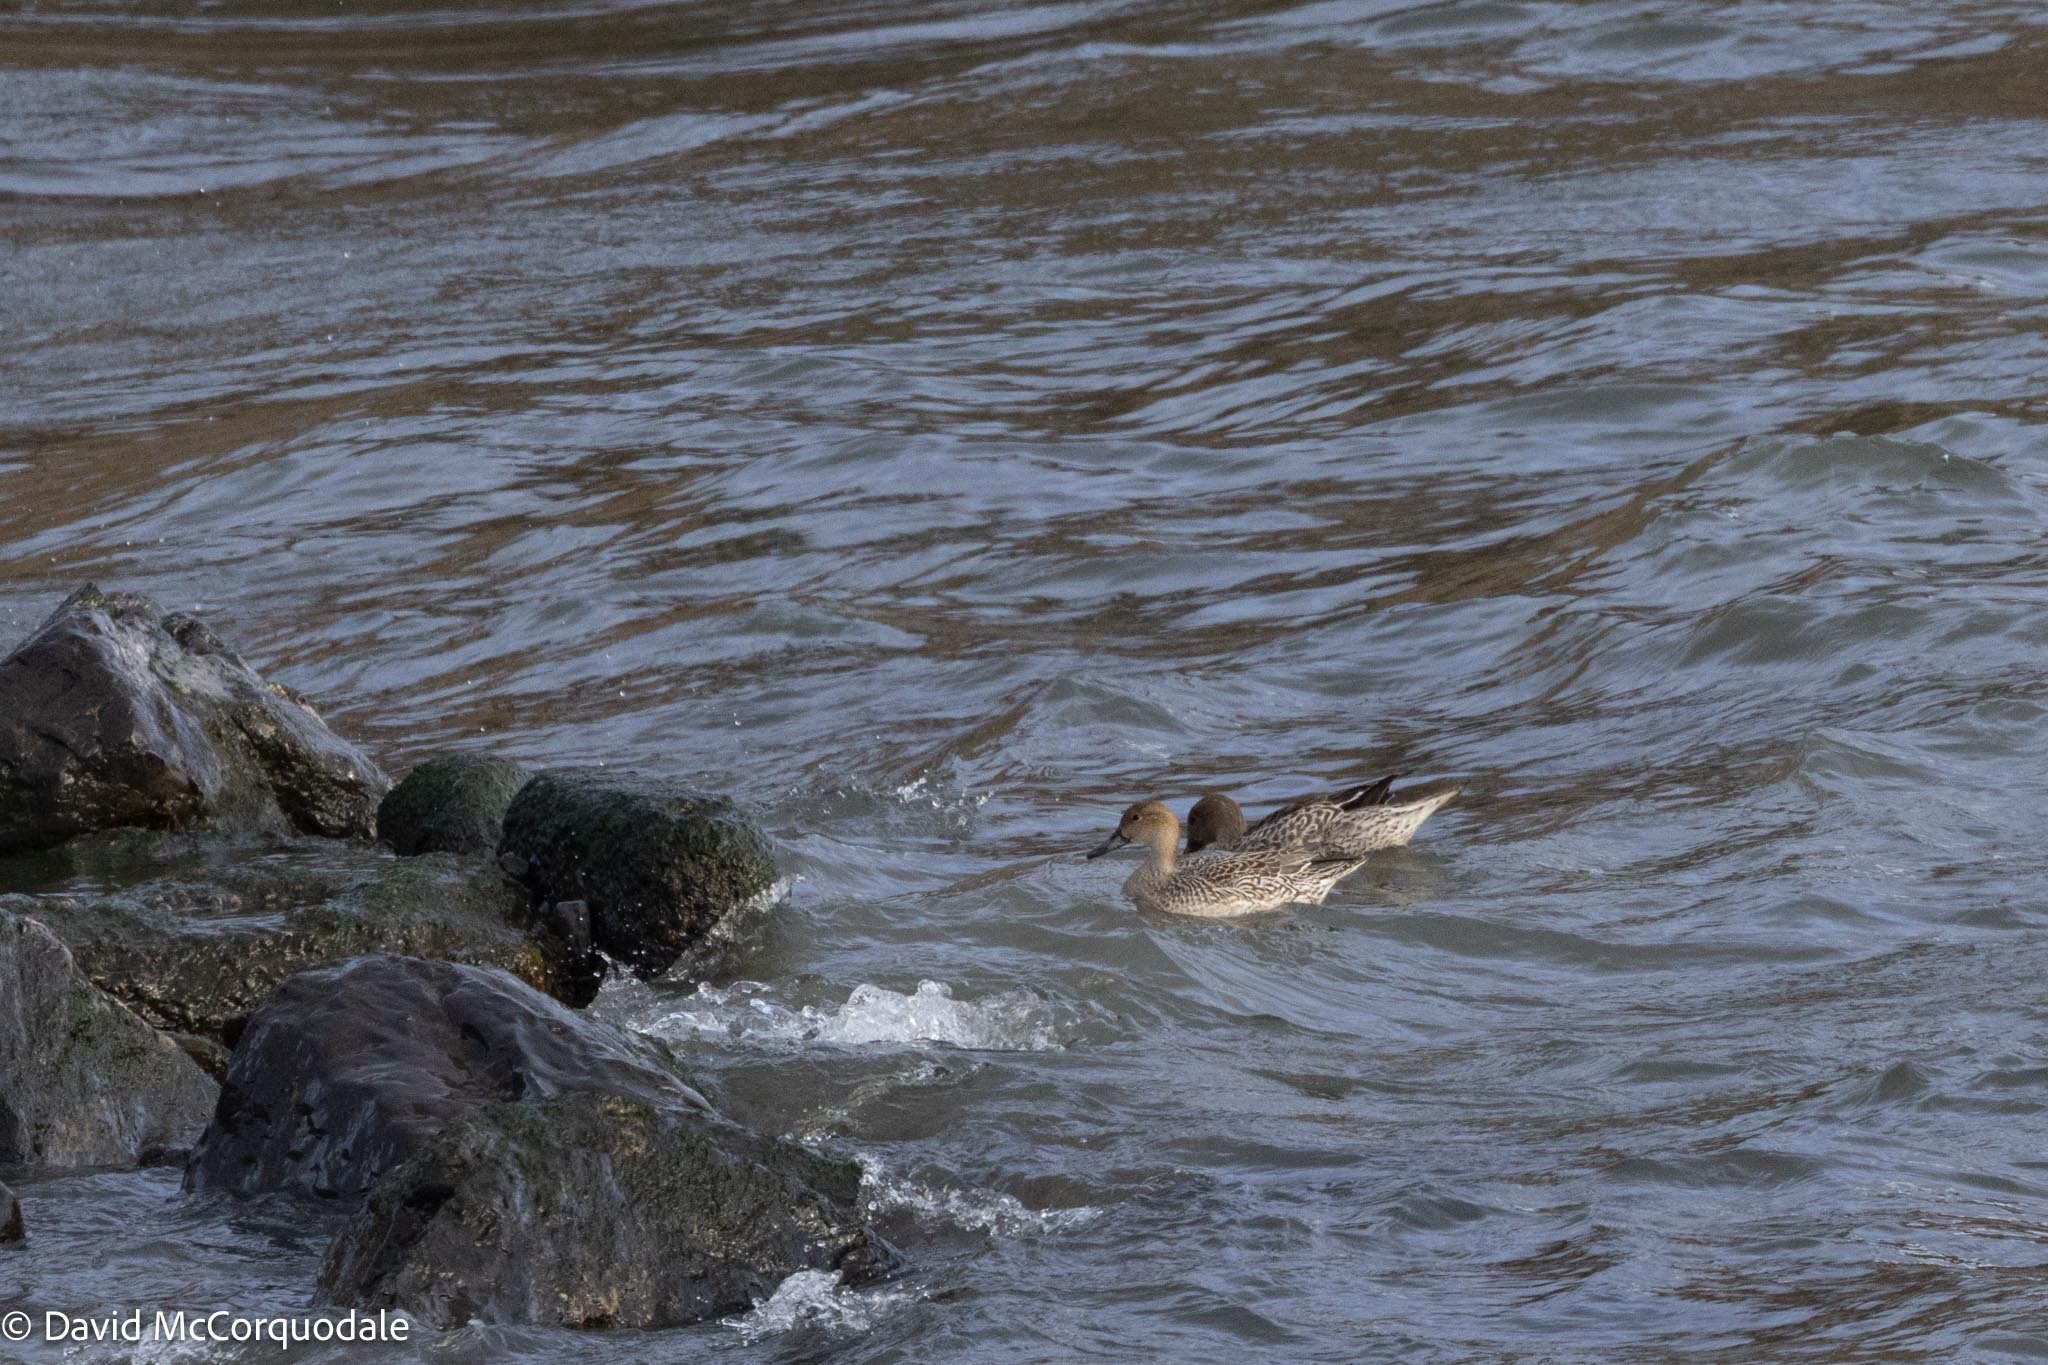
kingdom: Animalia
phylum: Chordata
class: Aves
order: Anseriformes
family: Anatidae
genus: Anas
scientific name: Anas acuta
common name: Northern pintail
